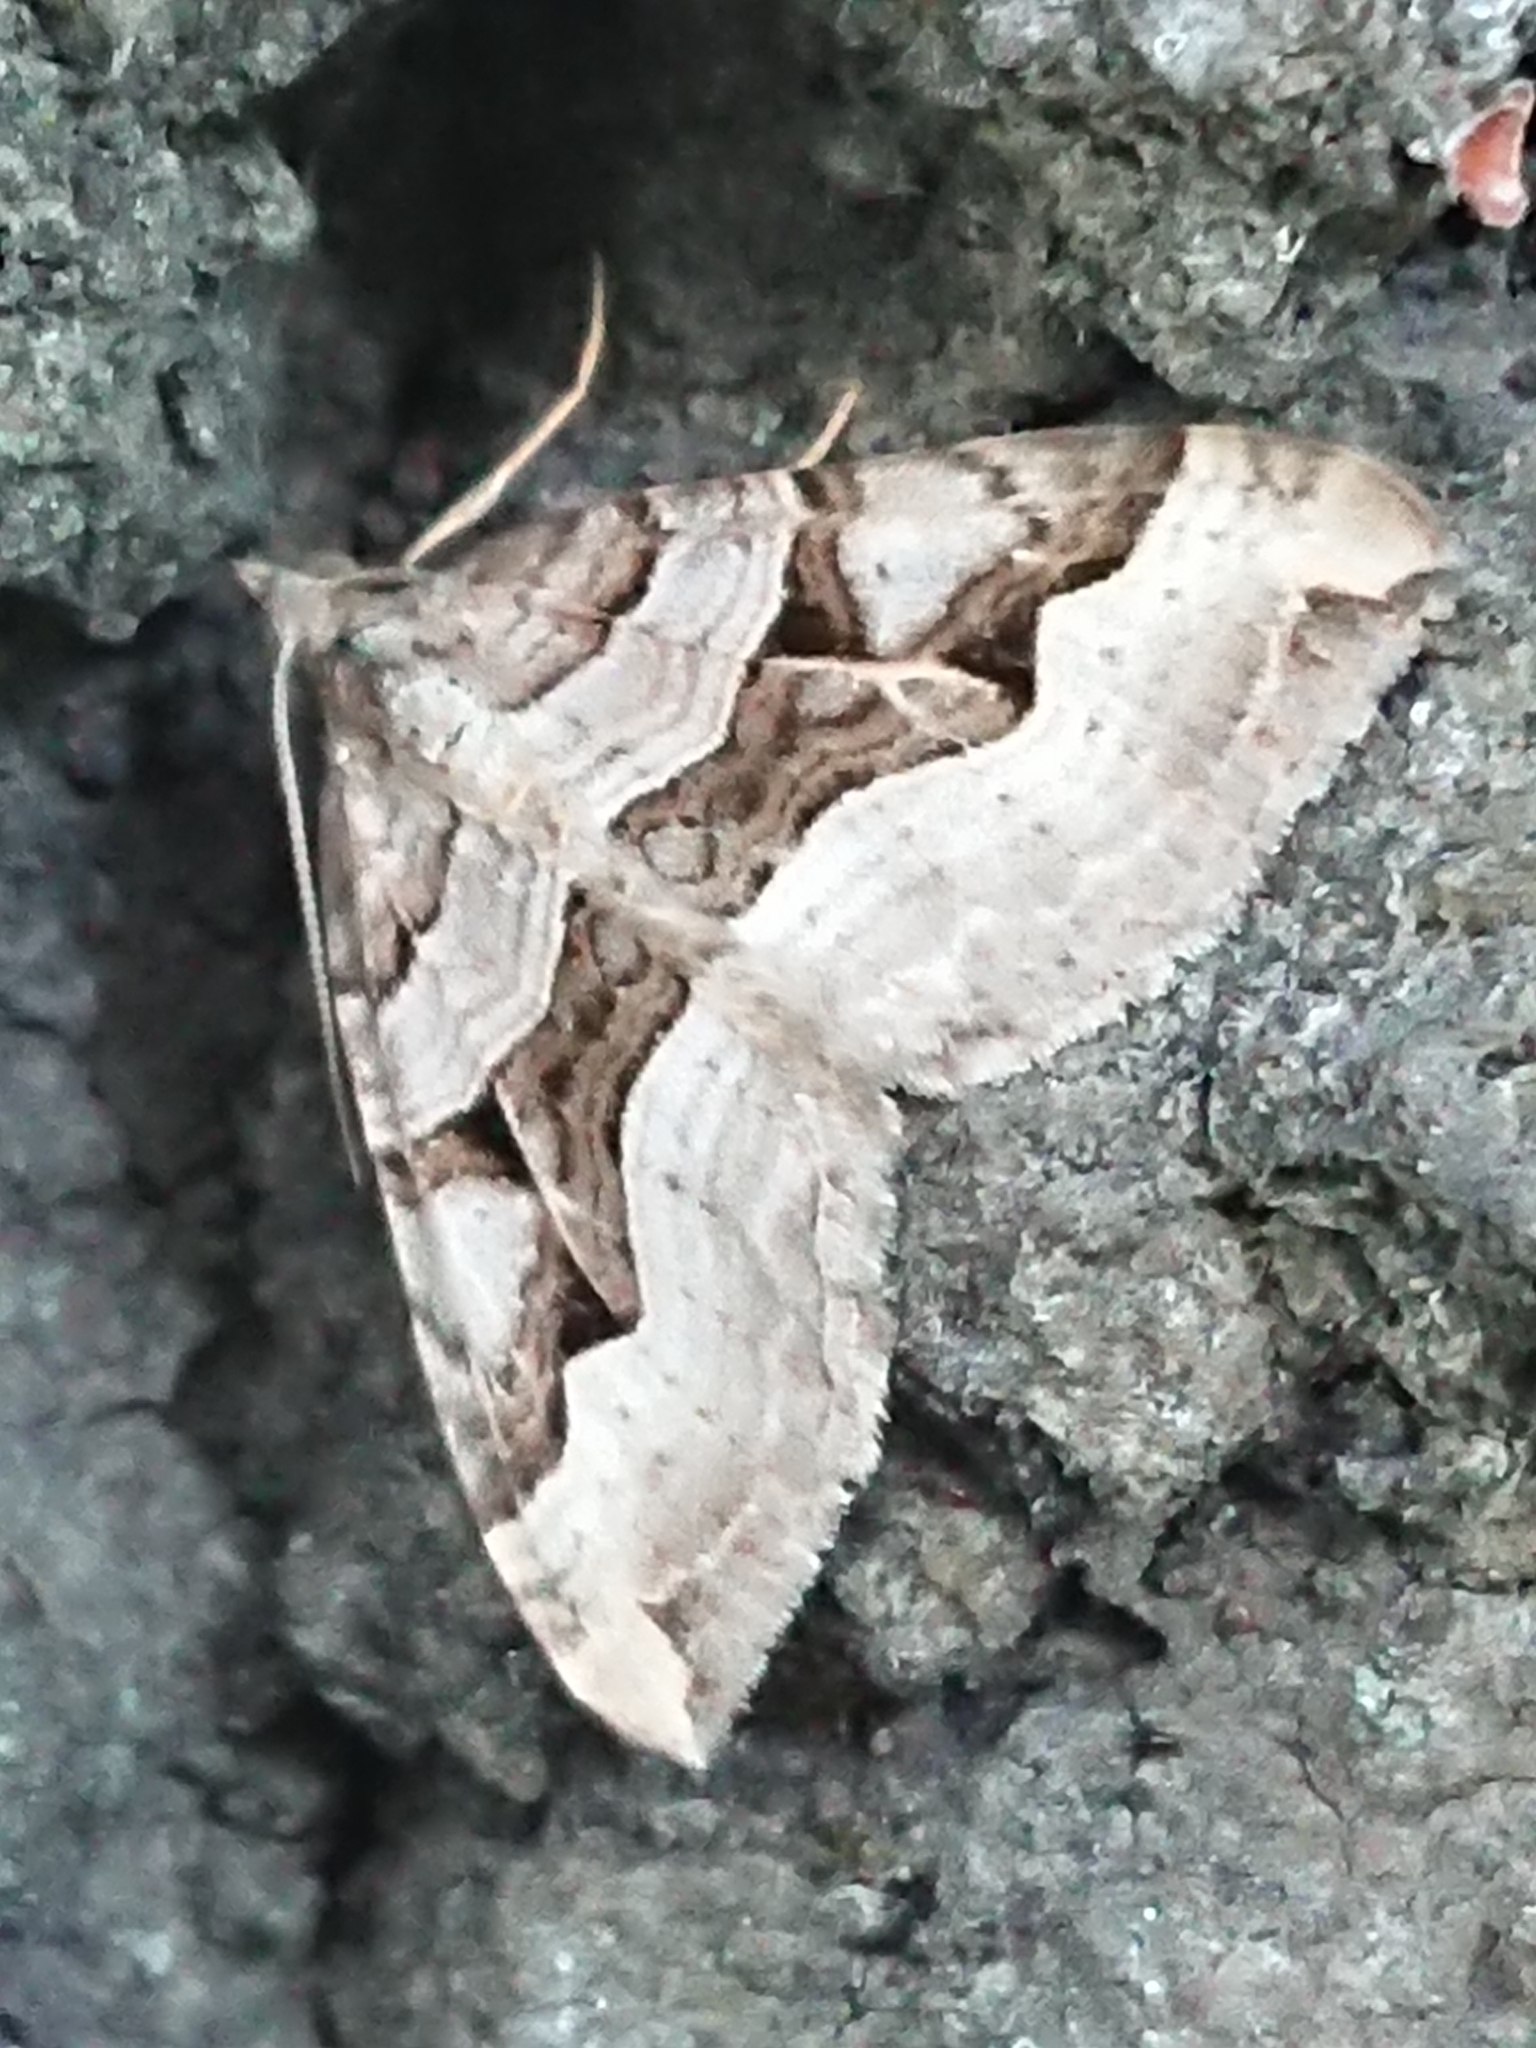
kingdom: Animalia
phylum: Arthropoda
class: Insecta
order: Lepidoptera
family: Geometridae
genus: Xanthorhoe
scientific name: Xanthorhoe semifissata
